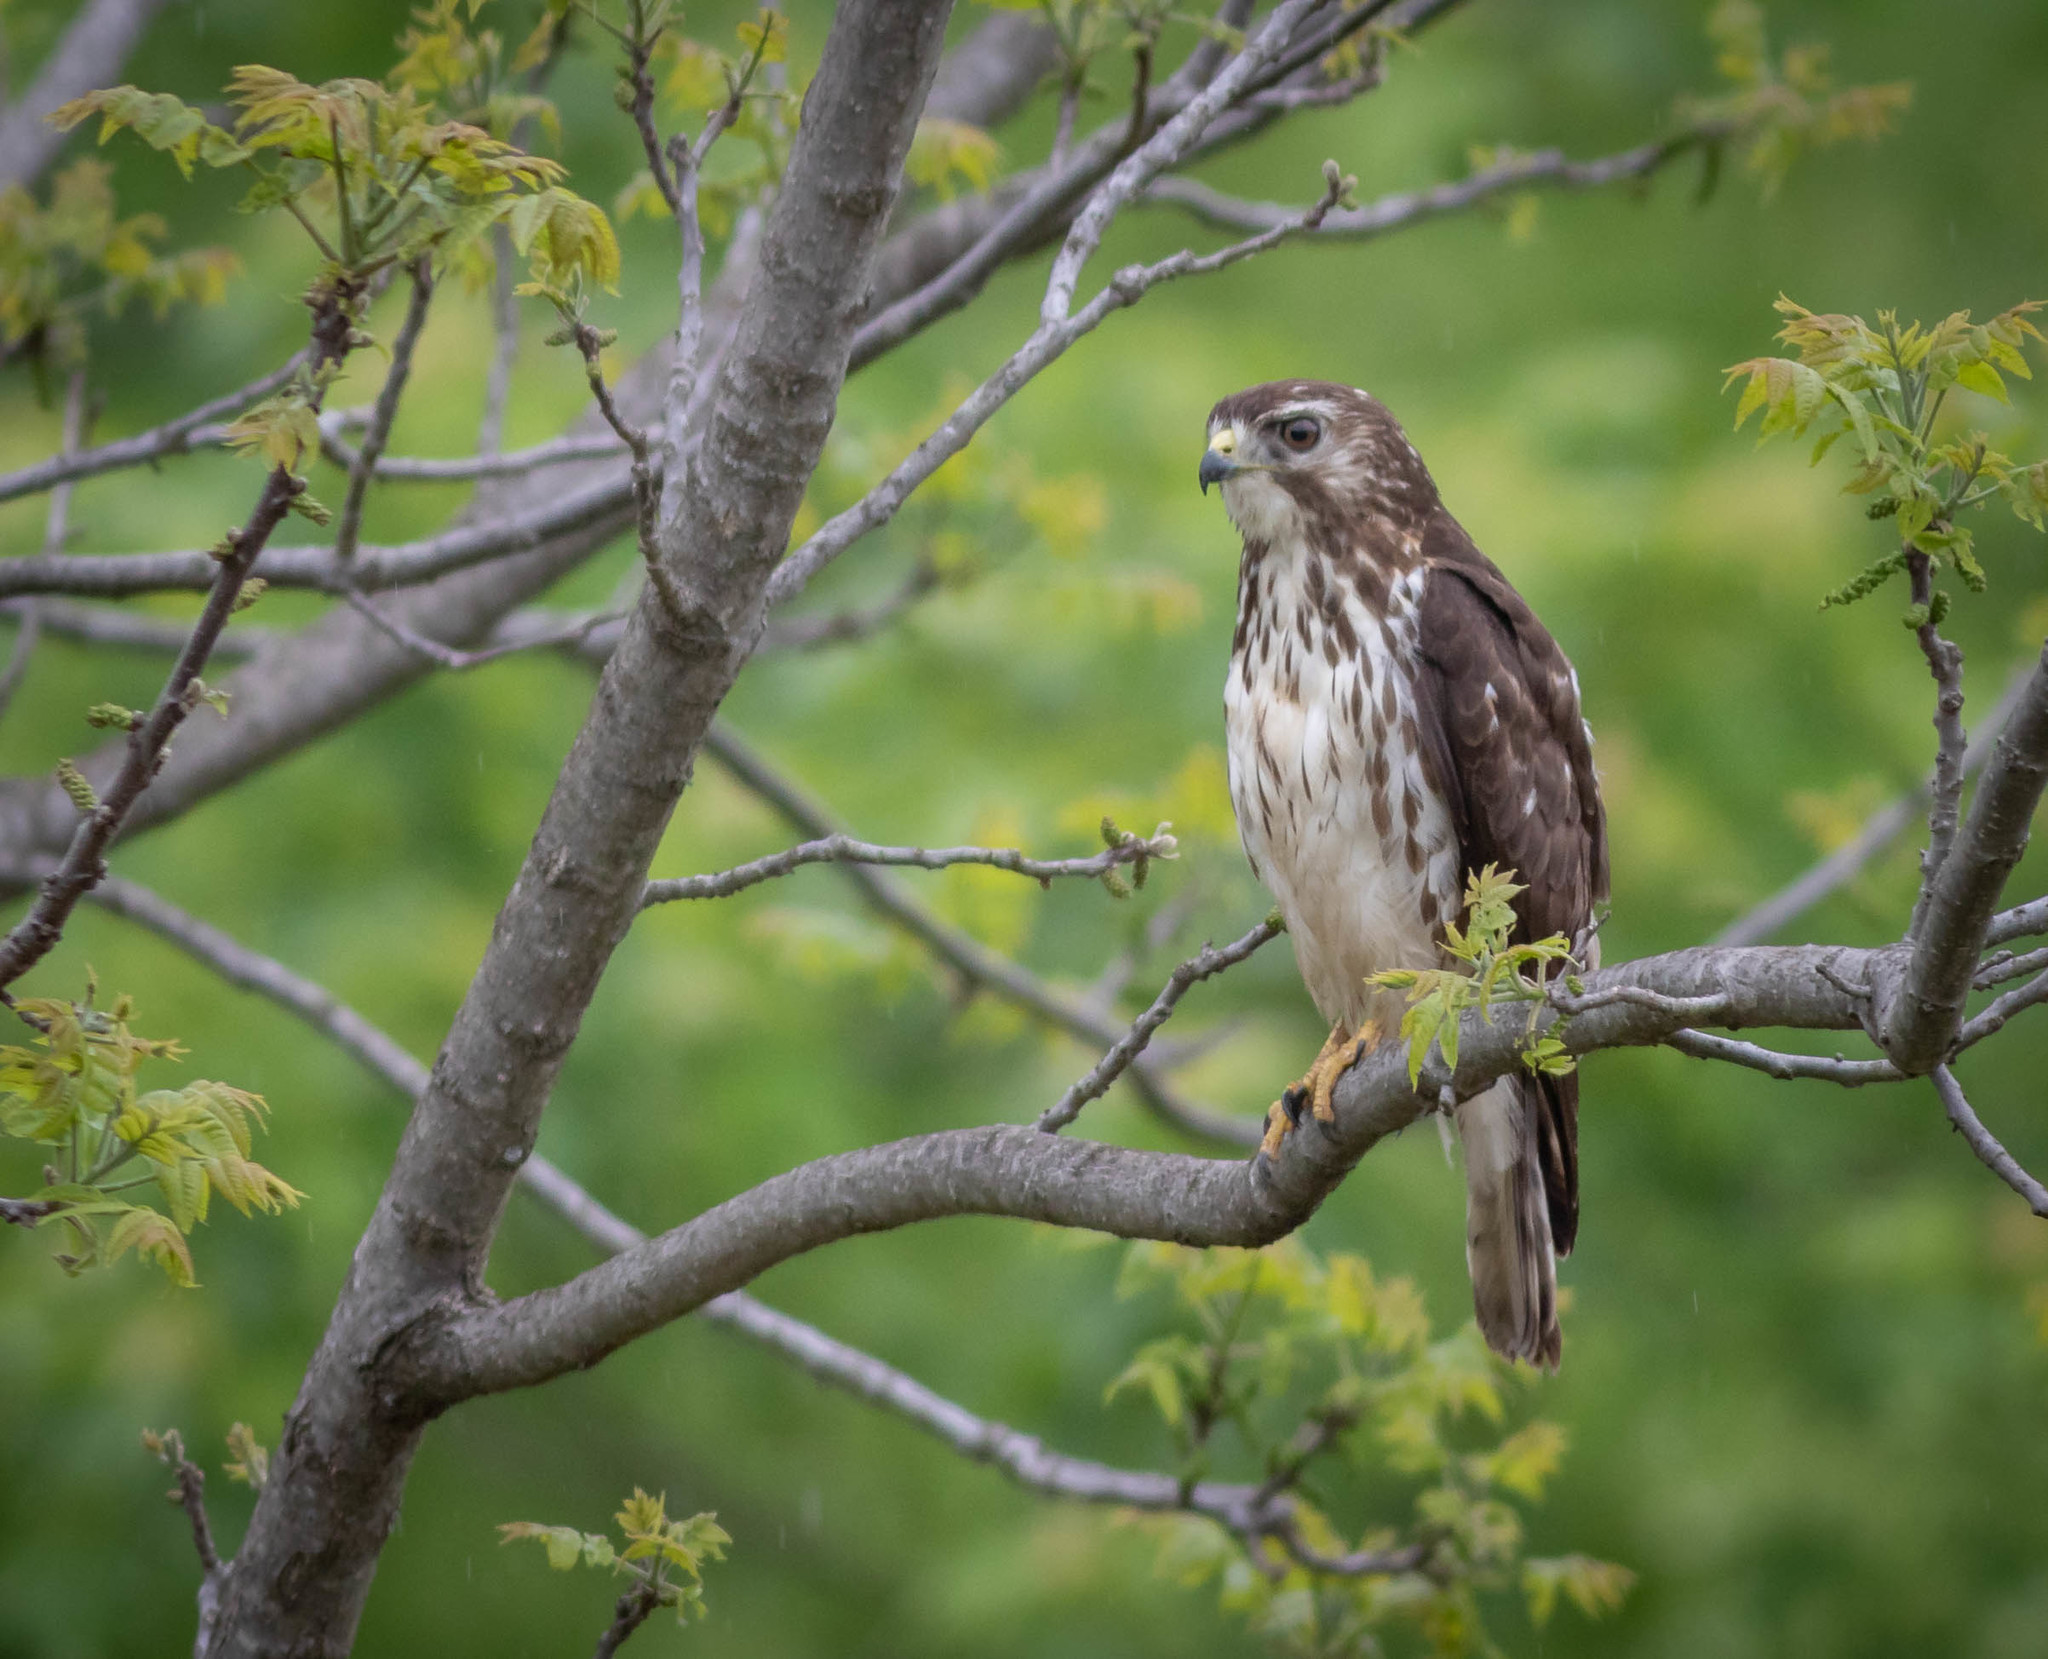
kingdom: Animalia
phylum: Chordata
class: Aves
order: Accipitriformes
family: Accipitridae
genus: Buteo
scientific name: Buteo platypterus
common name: Broad-winged hawk
